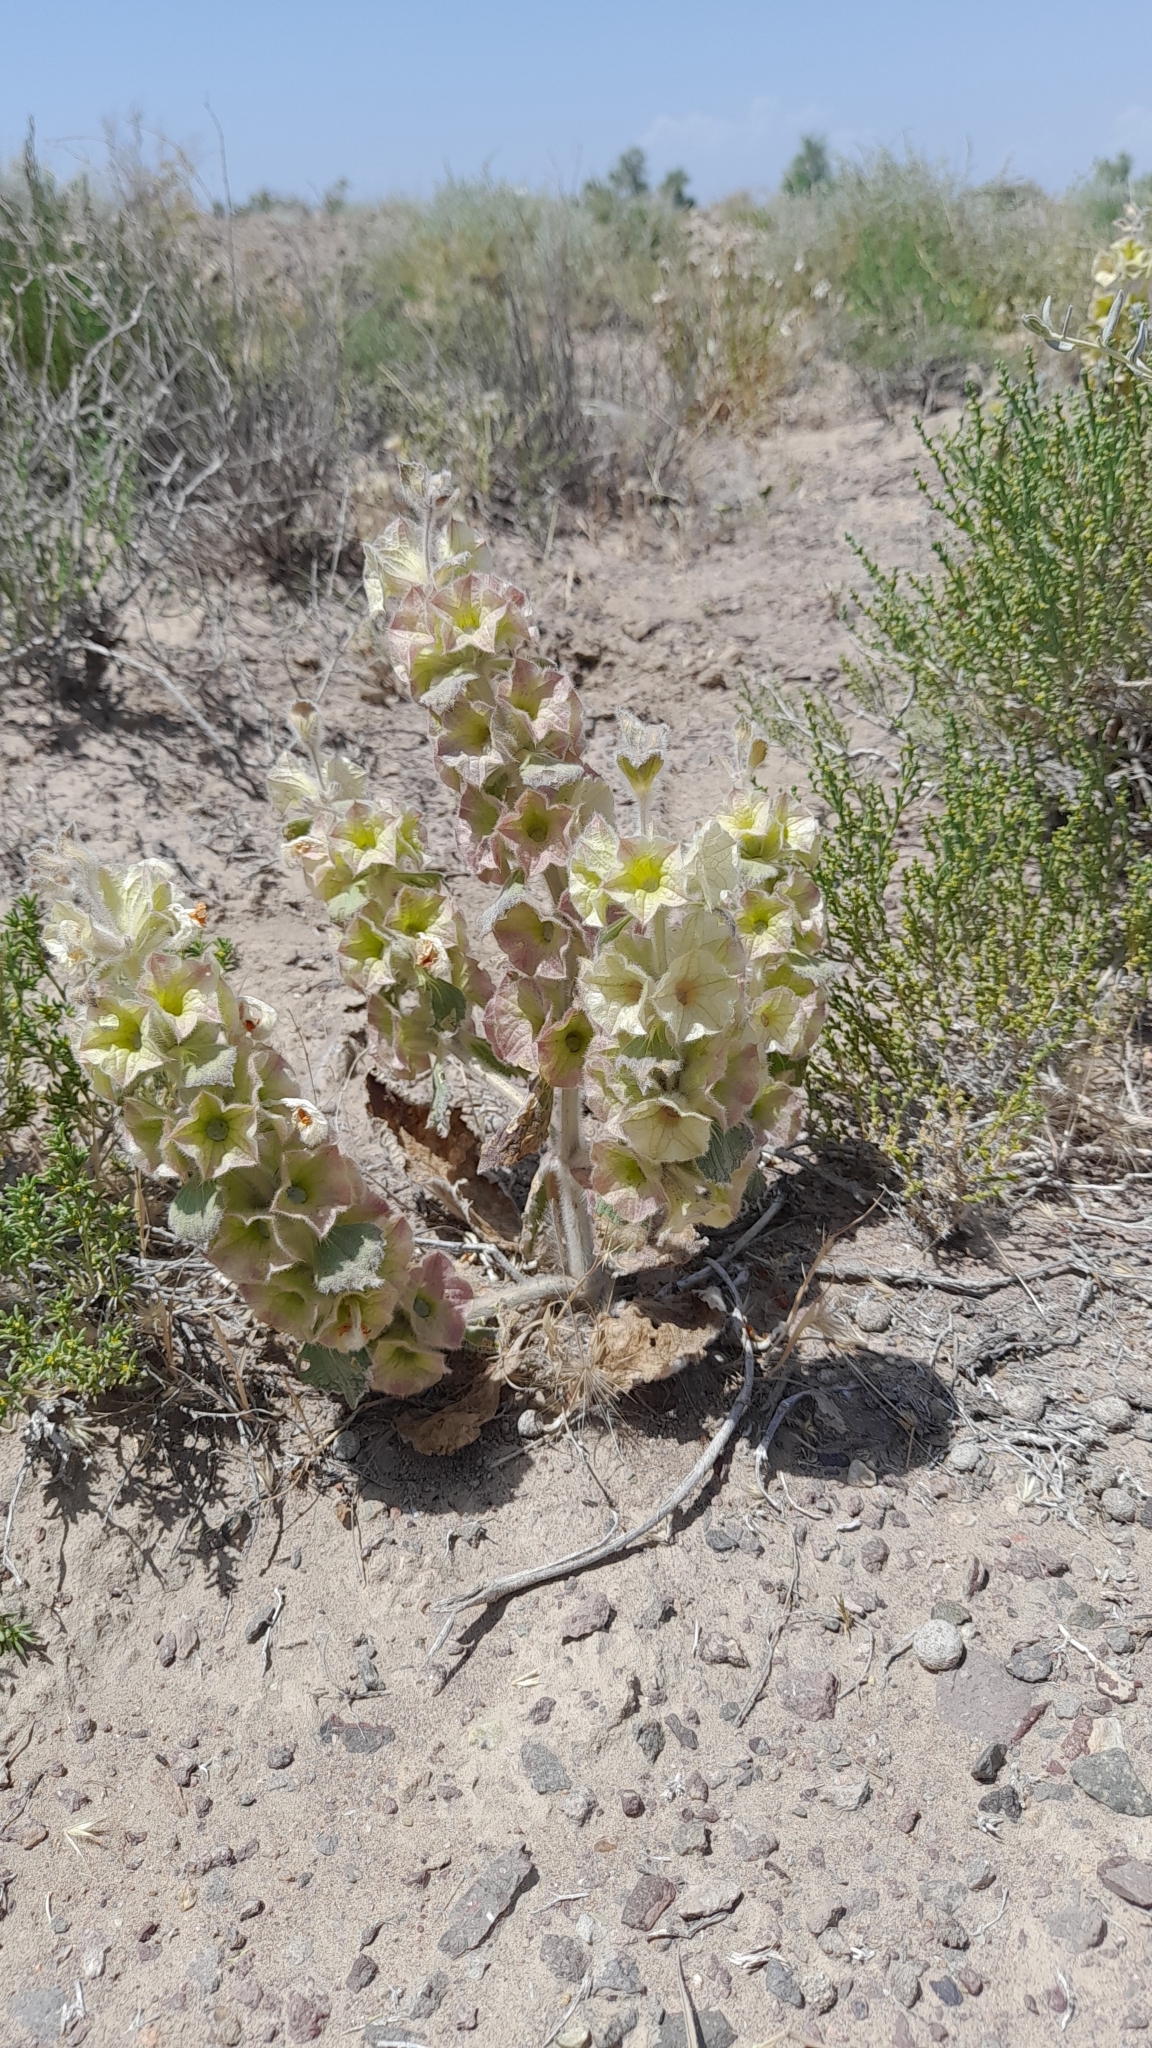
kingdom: Plantae
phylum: Tracheophyta
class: Magnoliopsida
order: Lamiales
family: Lamiaceae
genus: Phlomoides
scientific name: Phlomoides isochila
